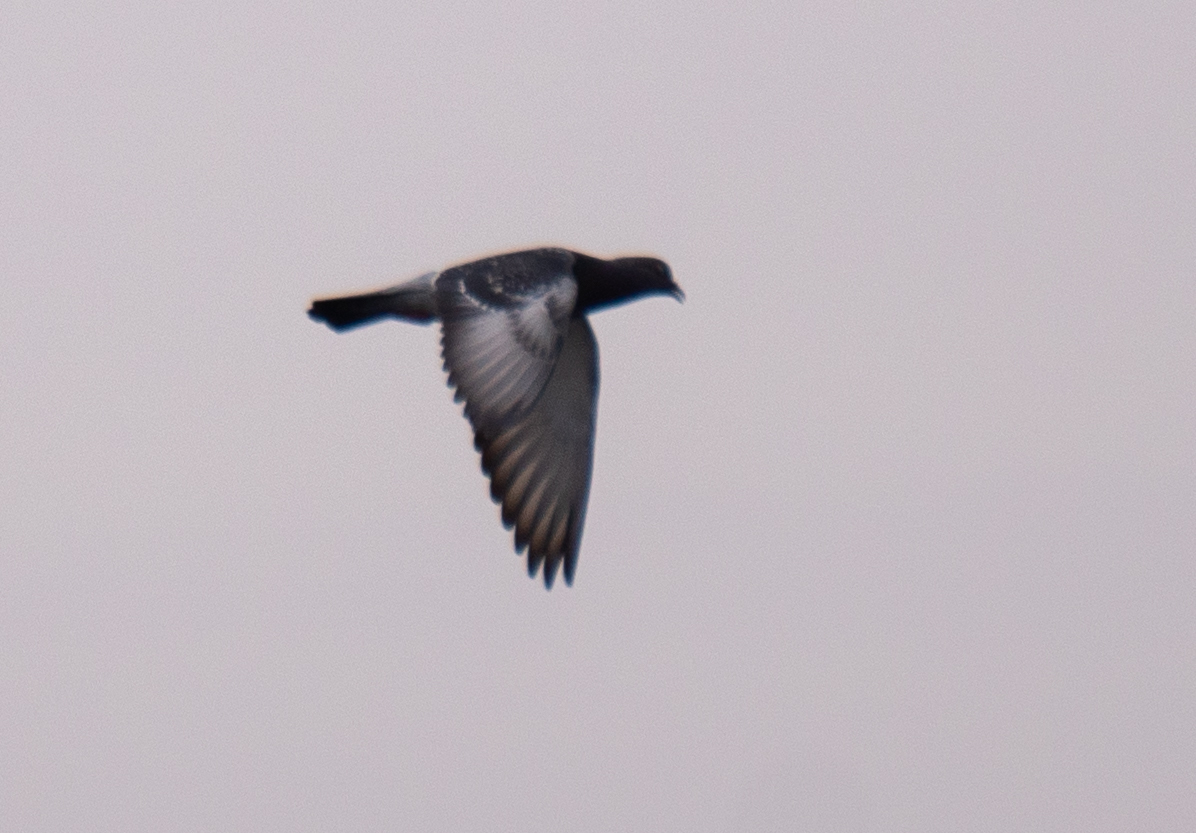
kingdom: Animalia
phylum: Chordata
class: Aves
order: Columbiformes
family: Columbidae
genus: Columba
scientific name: Columba livia
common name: Rock pigeon
